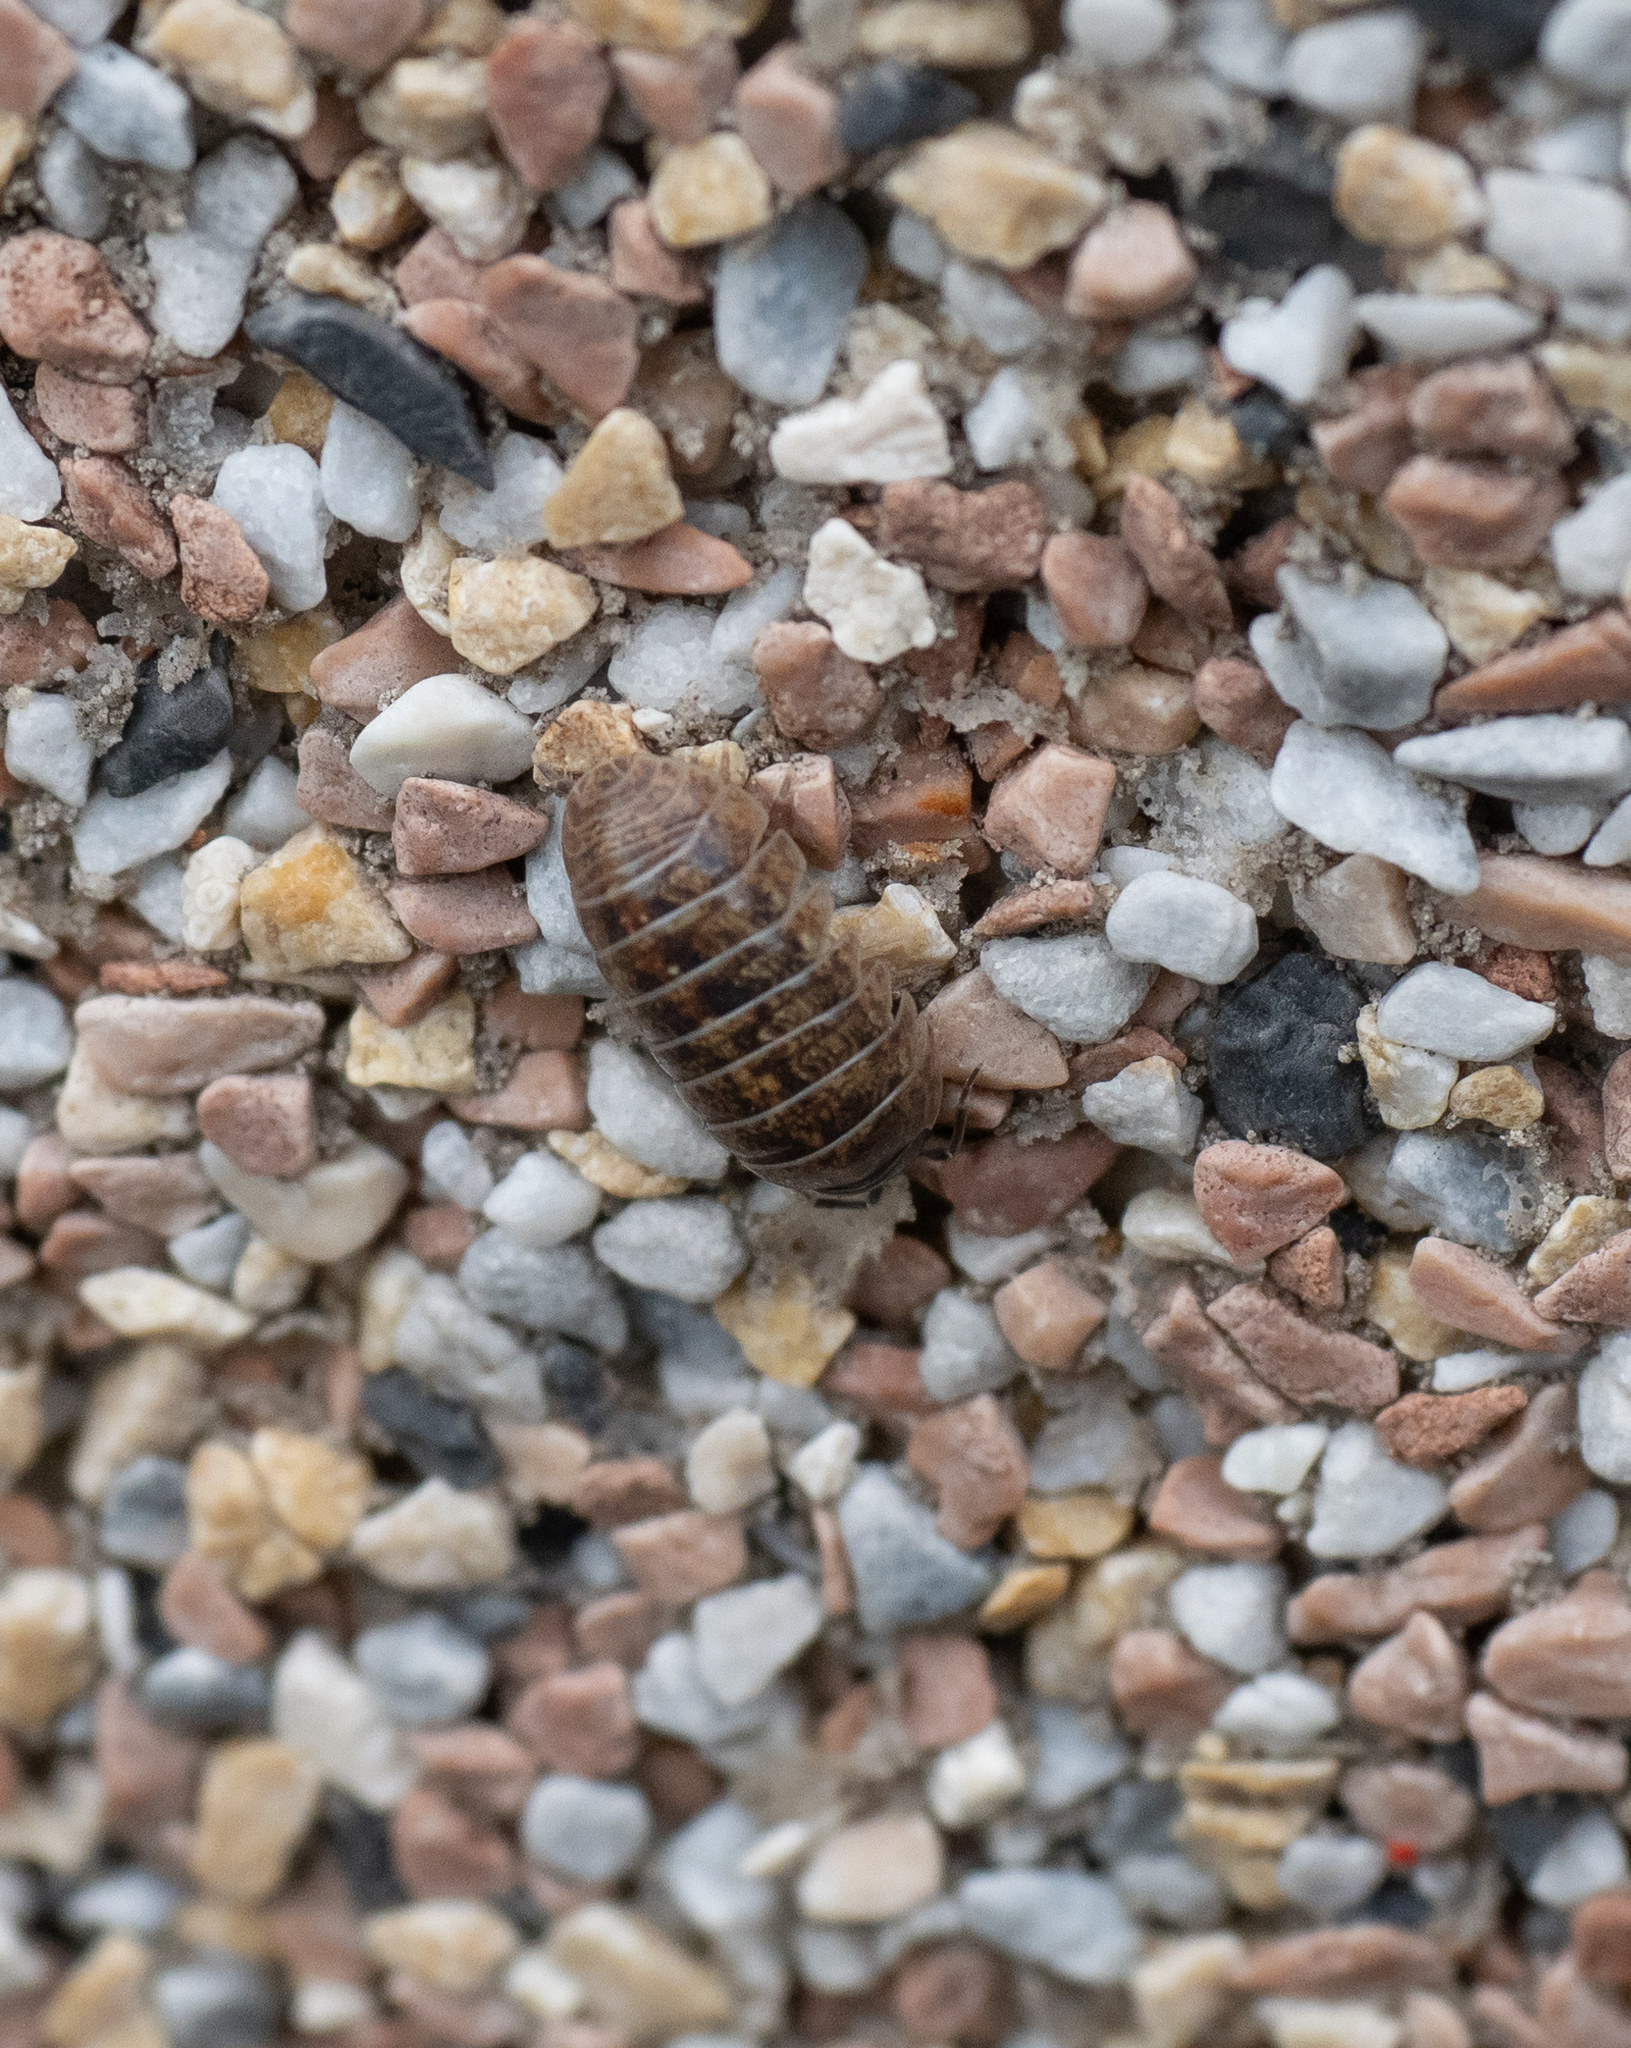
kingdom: Animalia
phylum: Arthropoda
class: Malacostraca
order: Isopoda
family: Armadillidiidae
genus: Armadillidium
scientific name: Armadillidium vulgare
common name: Common pill woodlouse
